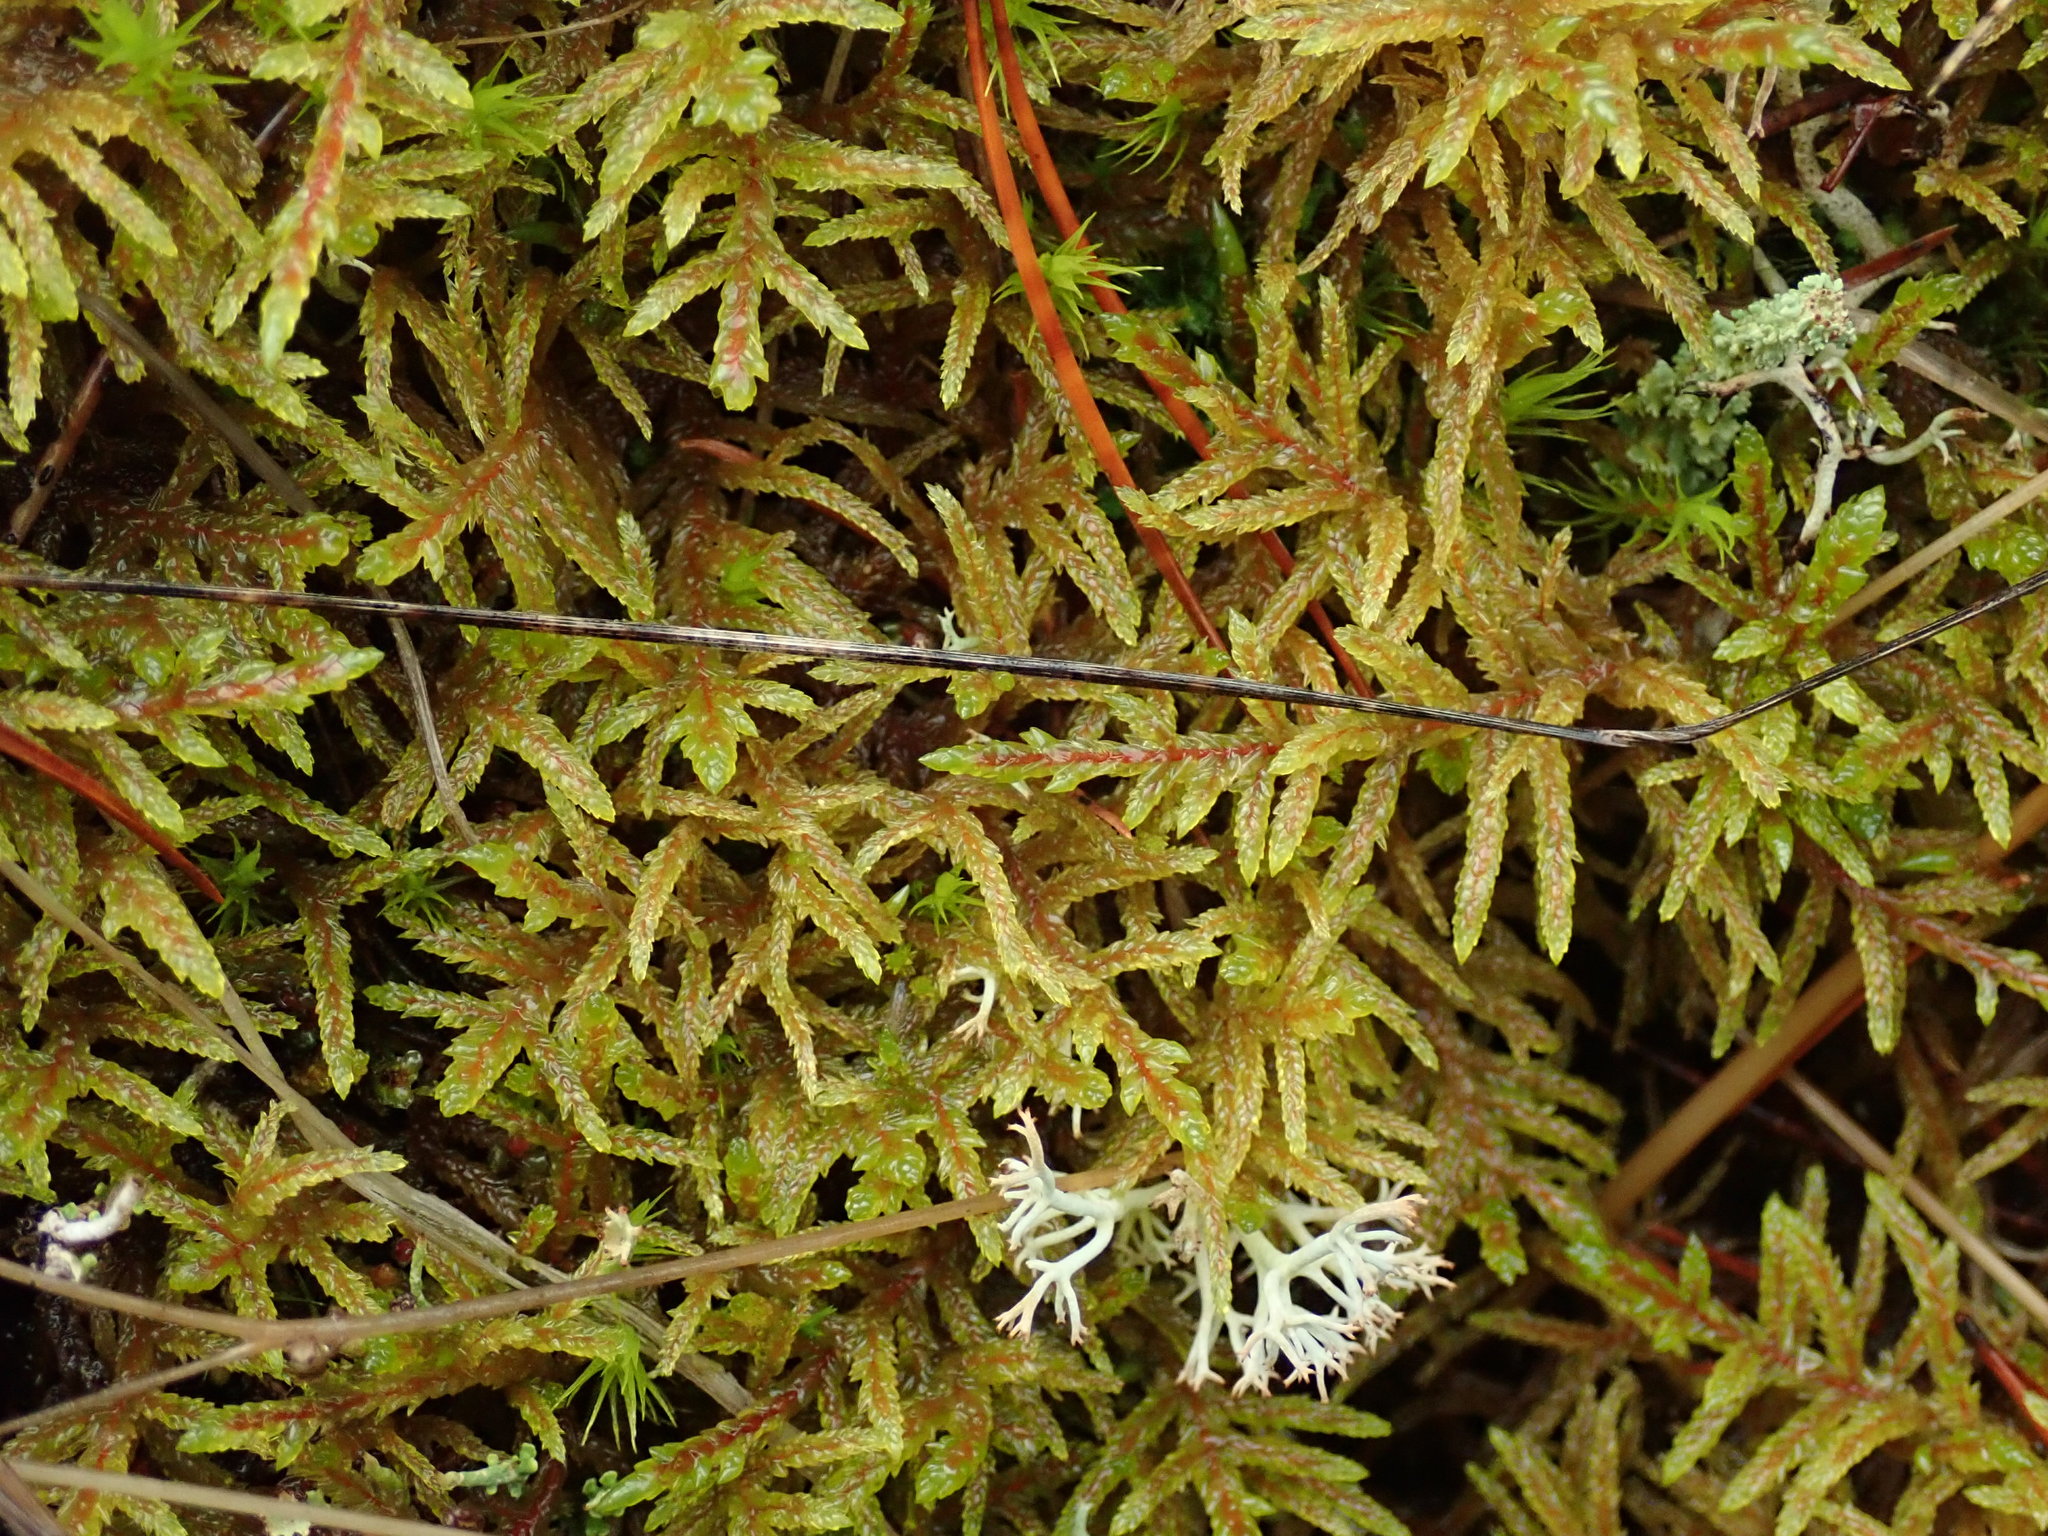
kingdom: Plantae
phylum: Bryophyta
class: Bryopsida
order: Hypnales
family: Hylocomiaceae
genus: Pleurozium
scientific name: Pleurozium schreberi
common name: Red-stemmed feather moss
